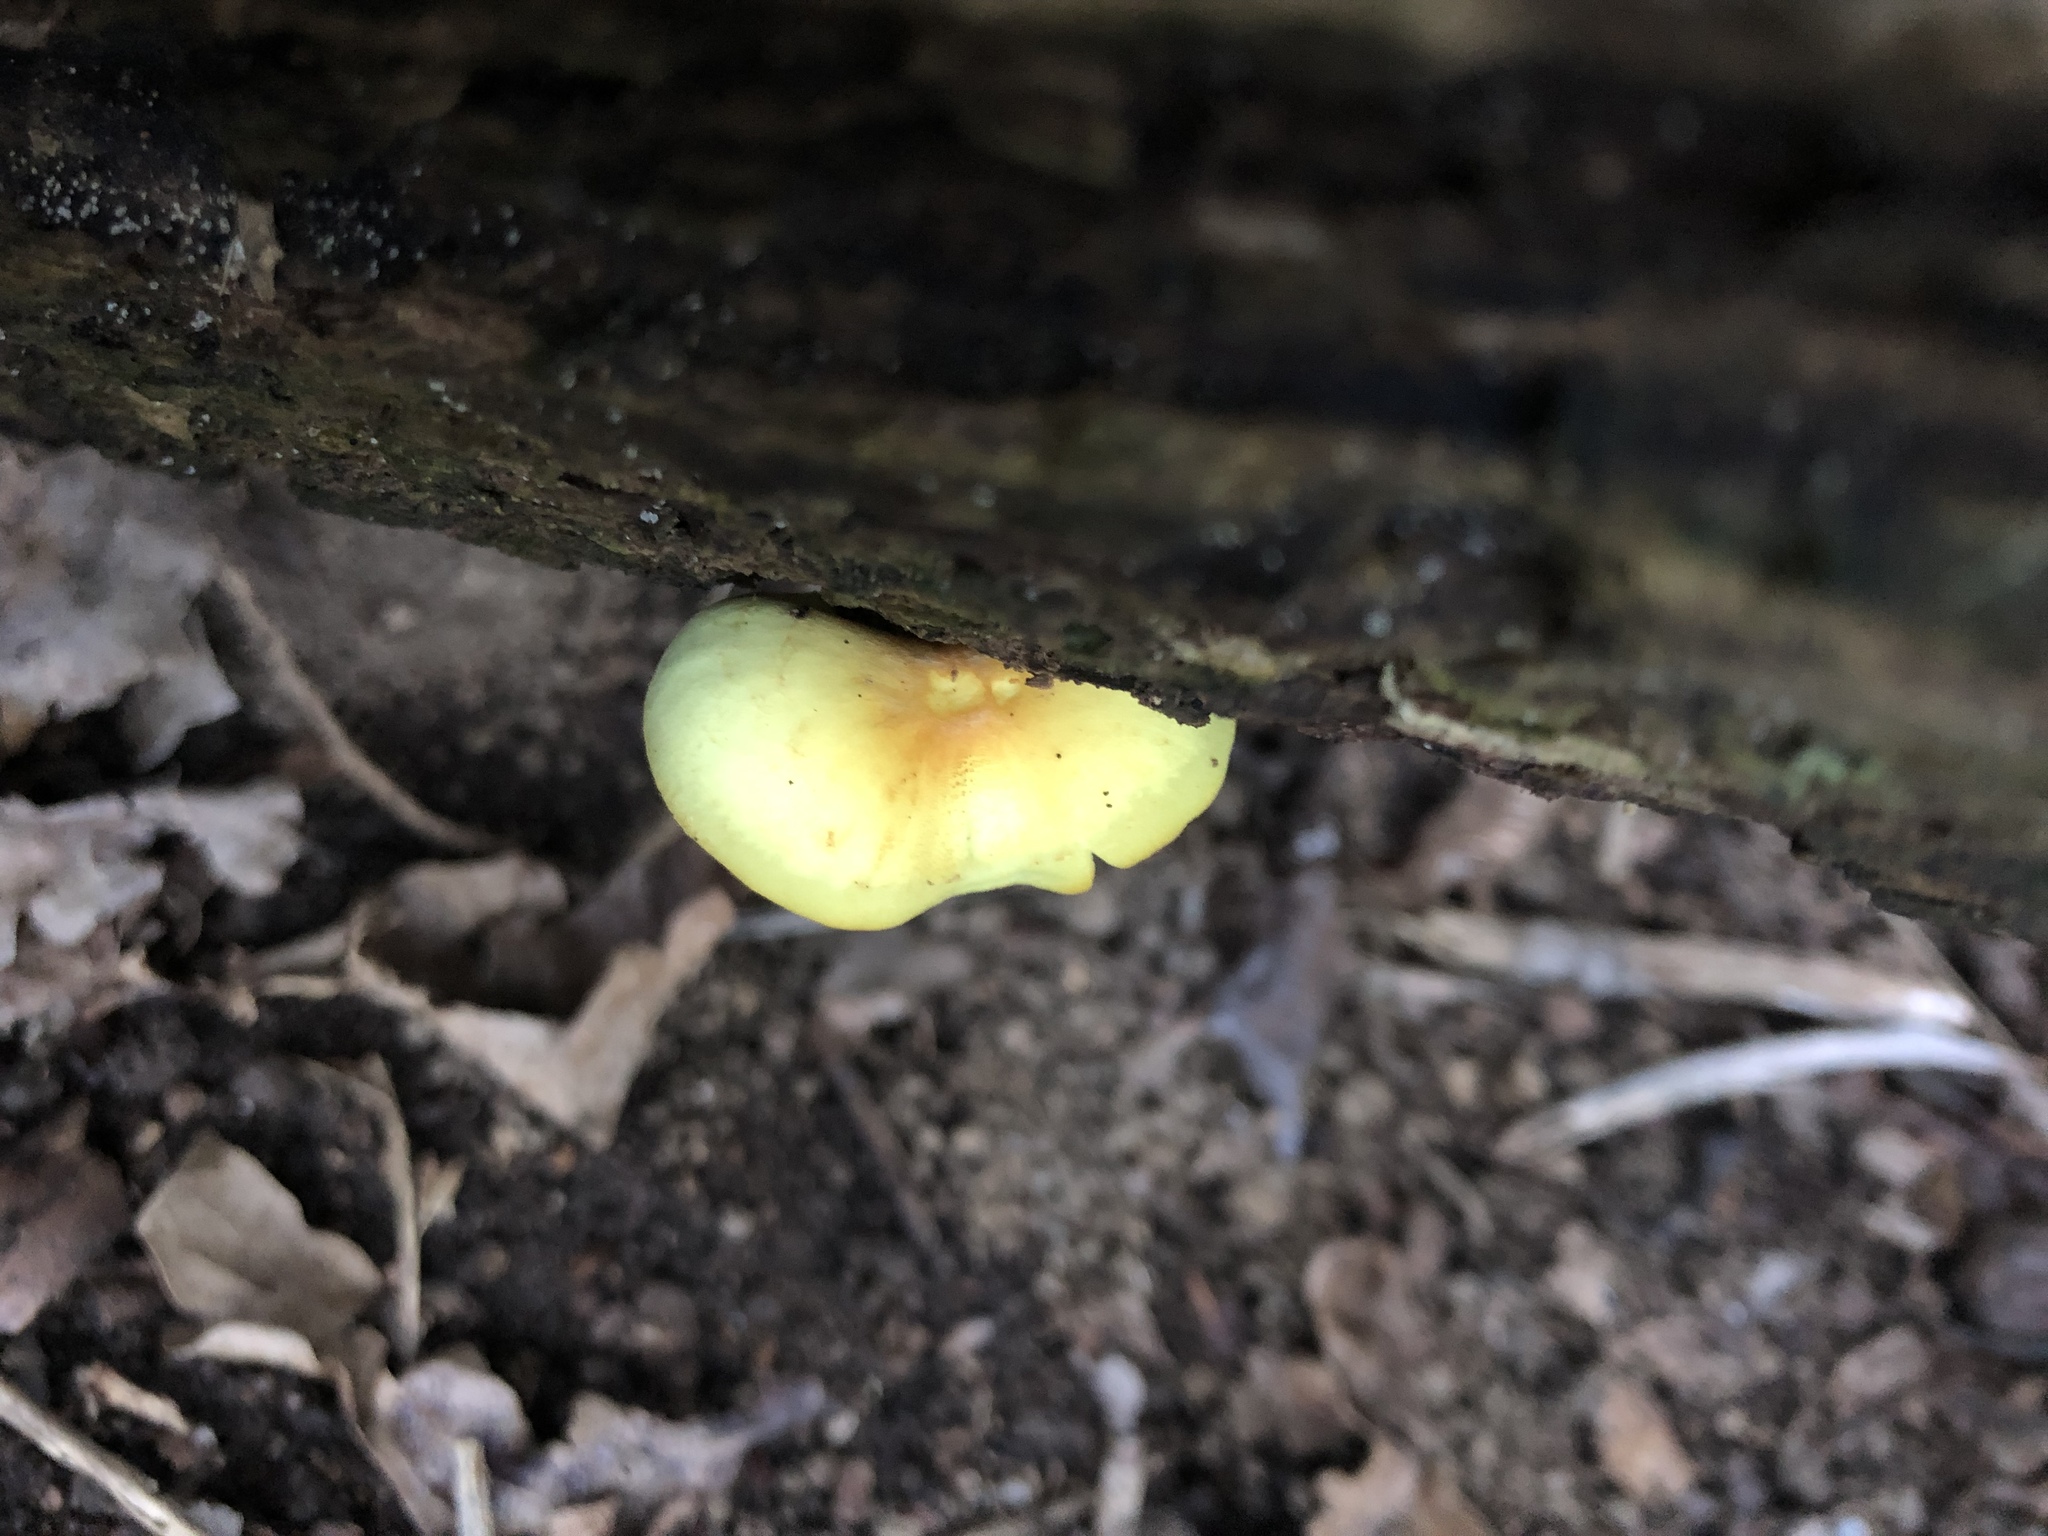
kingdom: Fungi
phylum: Basidiomycota
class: Agaricomycetes
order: Agaricales
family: Strophariaceae
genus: Hypholoma
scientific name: Hypholoma fasciculare
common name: Sulphur tuft
